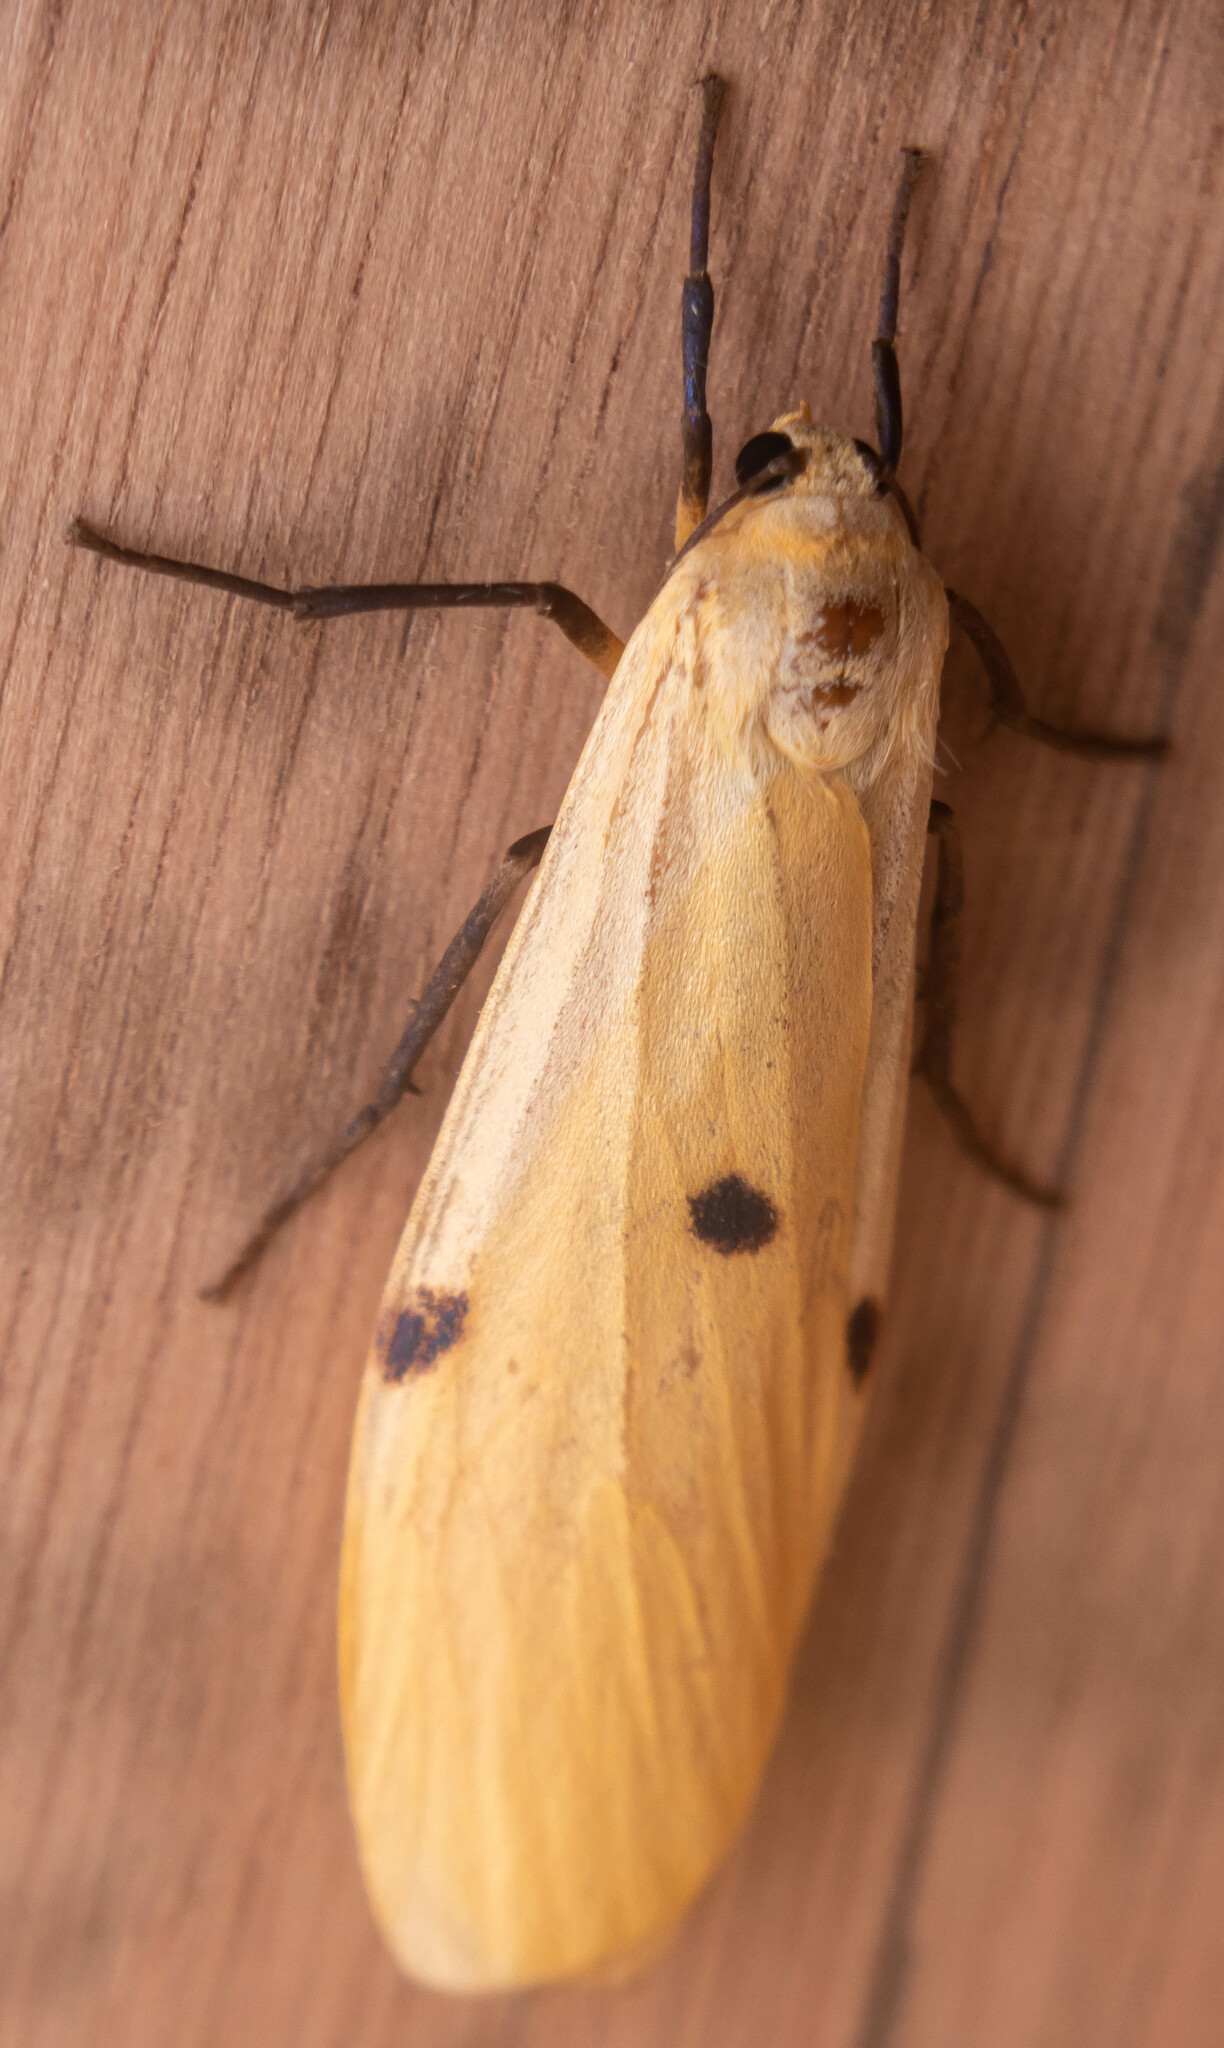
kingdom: Animalia
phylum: Arthropoda
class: Insecta
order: Lepidoptera
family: Erebidae
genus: Lithosia
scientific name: Lithosia quadra
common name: Four-spotted footman
